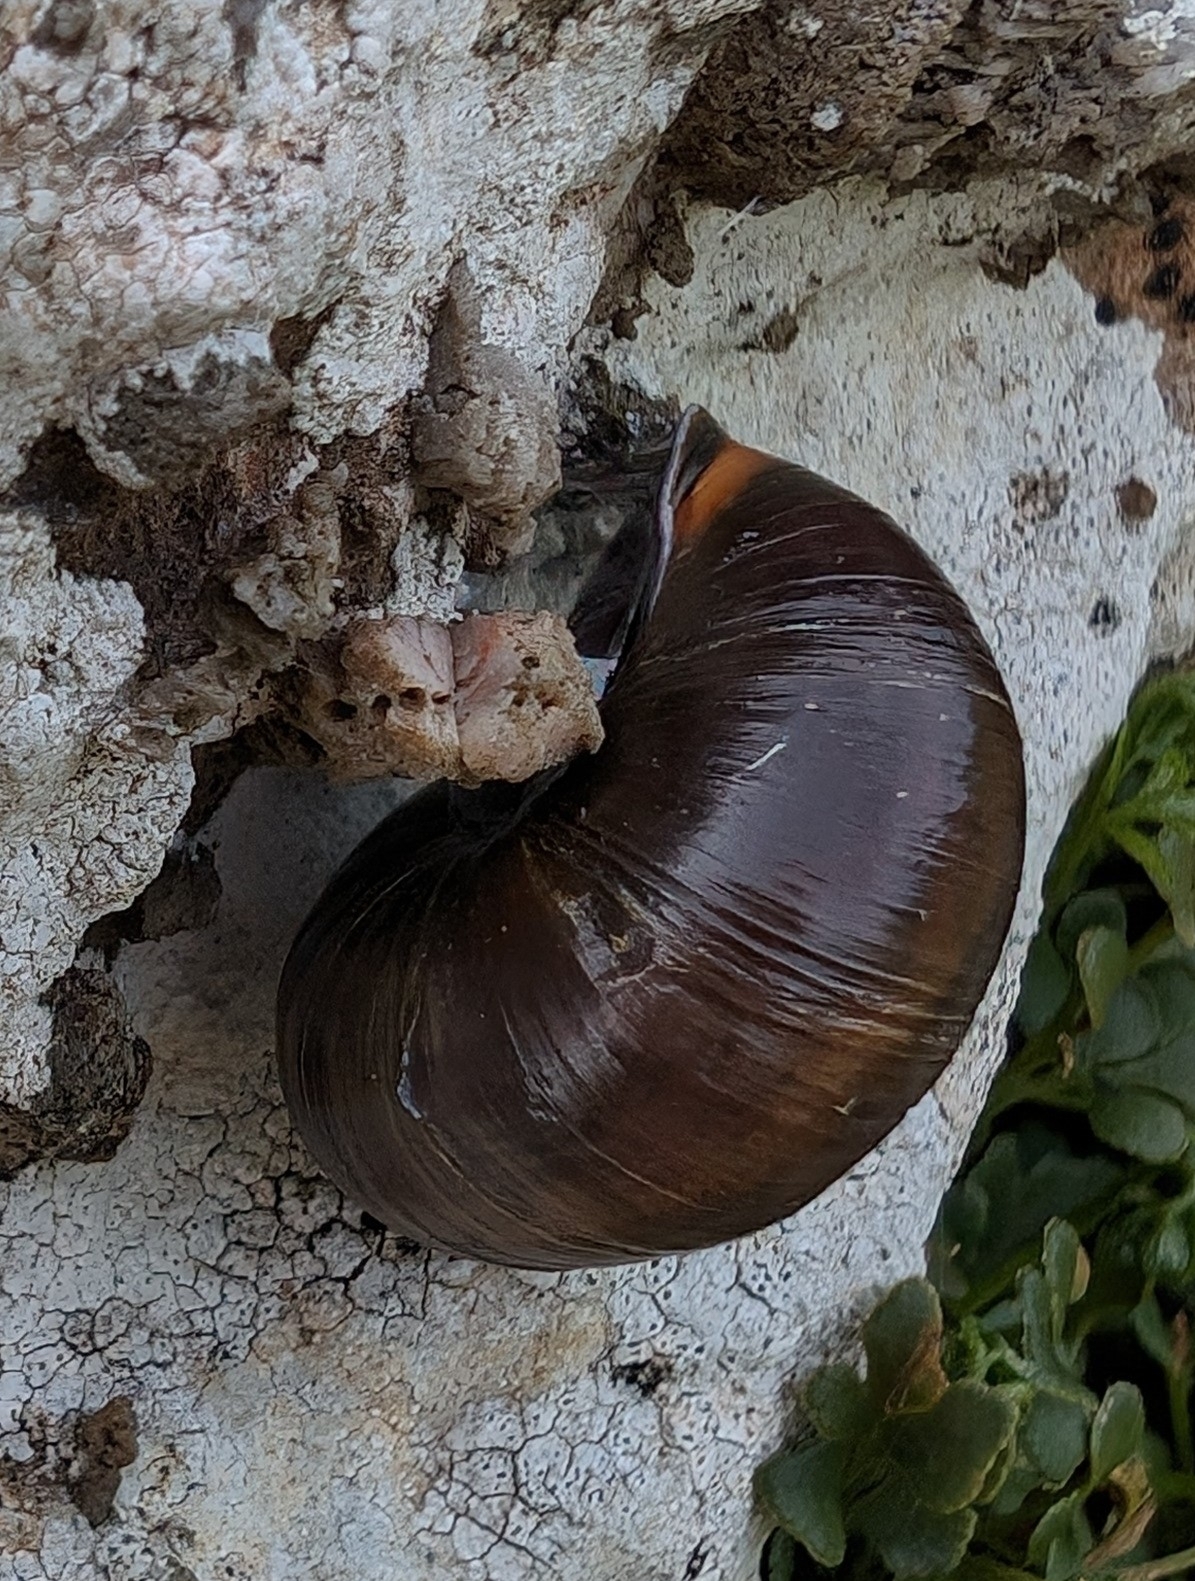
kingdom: Animalia
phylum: Mollusca
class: Gastropoda
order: Stylommatophora
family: Helicidae
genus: Cepaea
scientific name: Cepaea nemoralis
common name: Grovesnail
